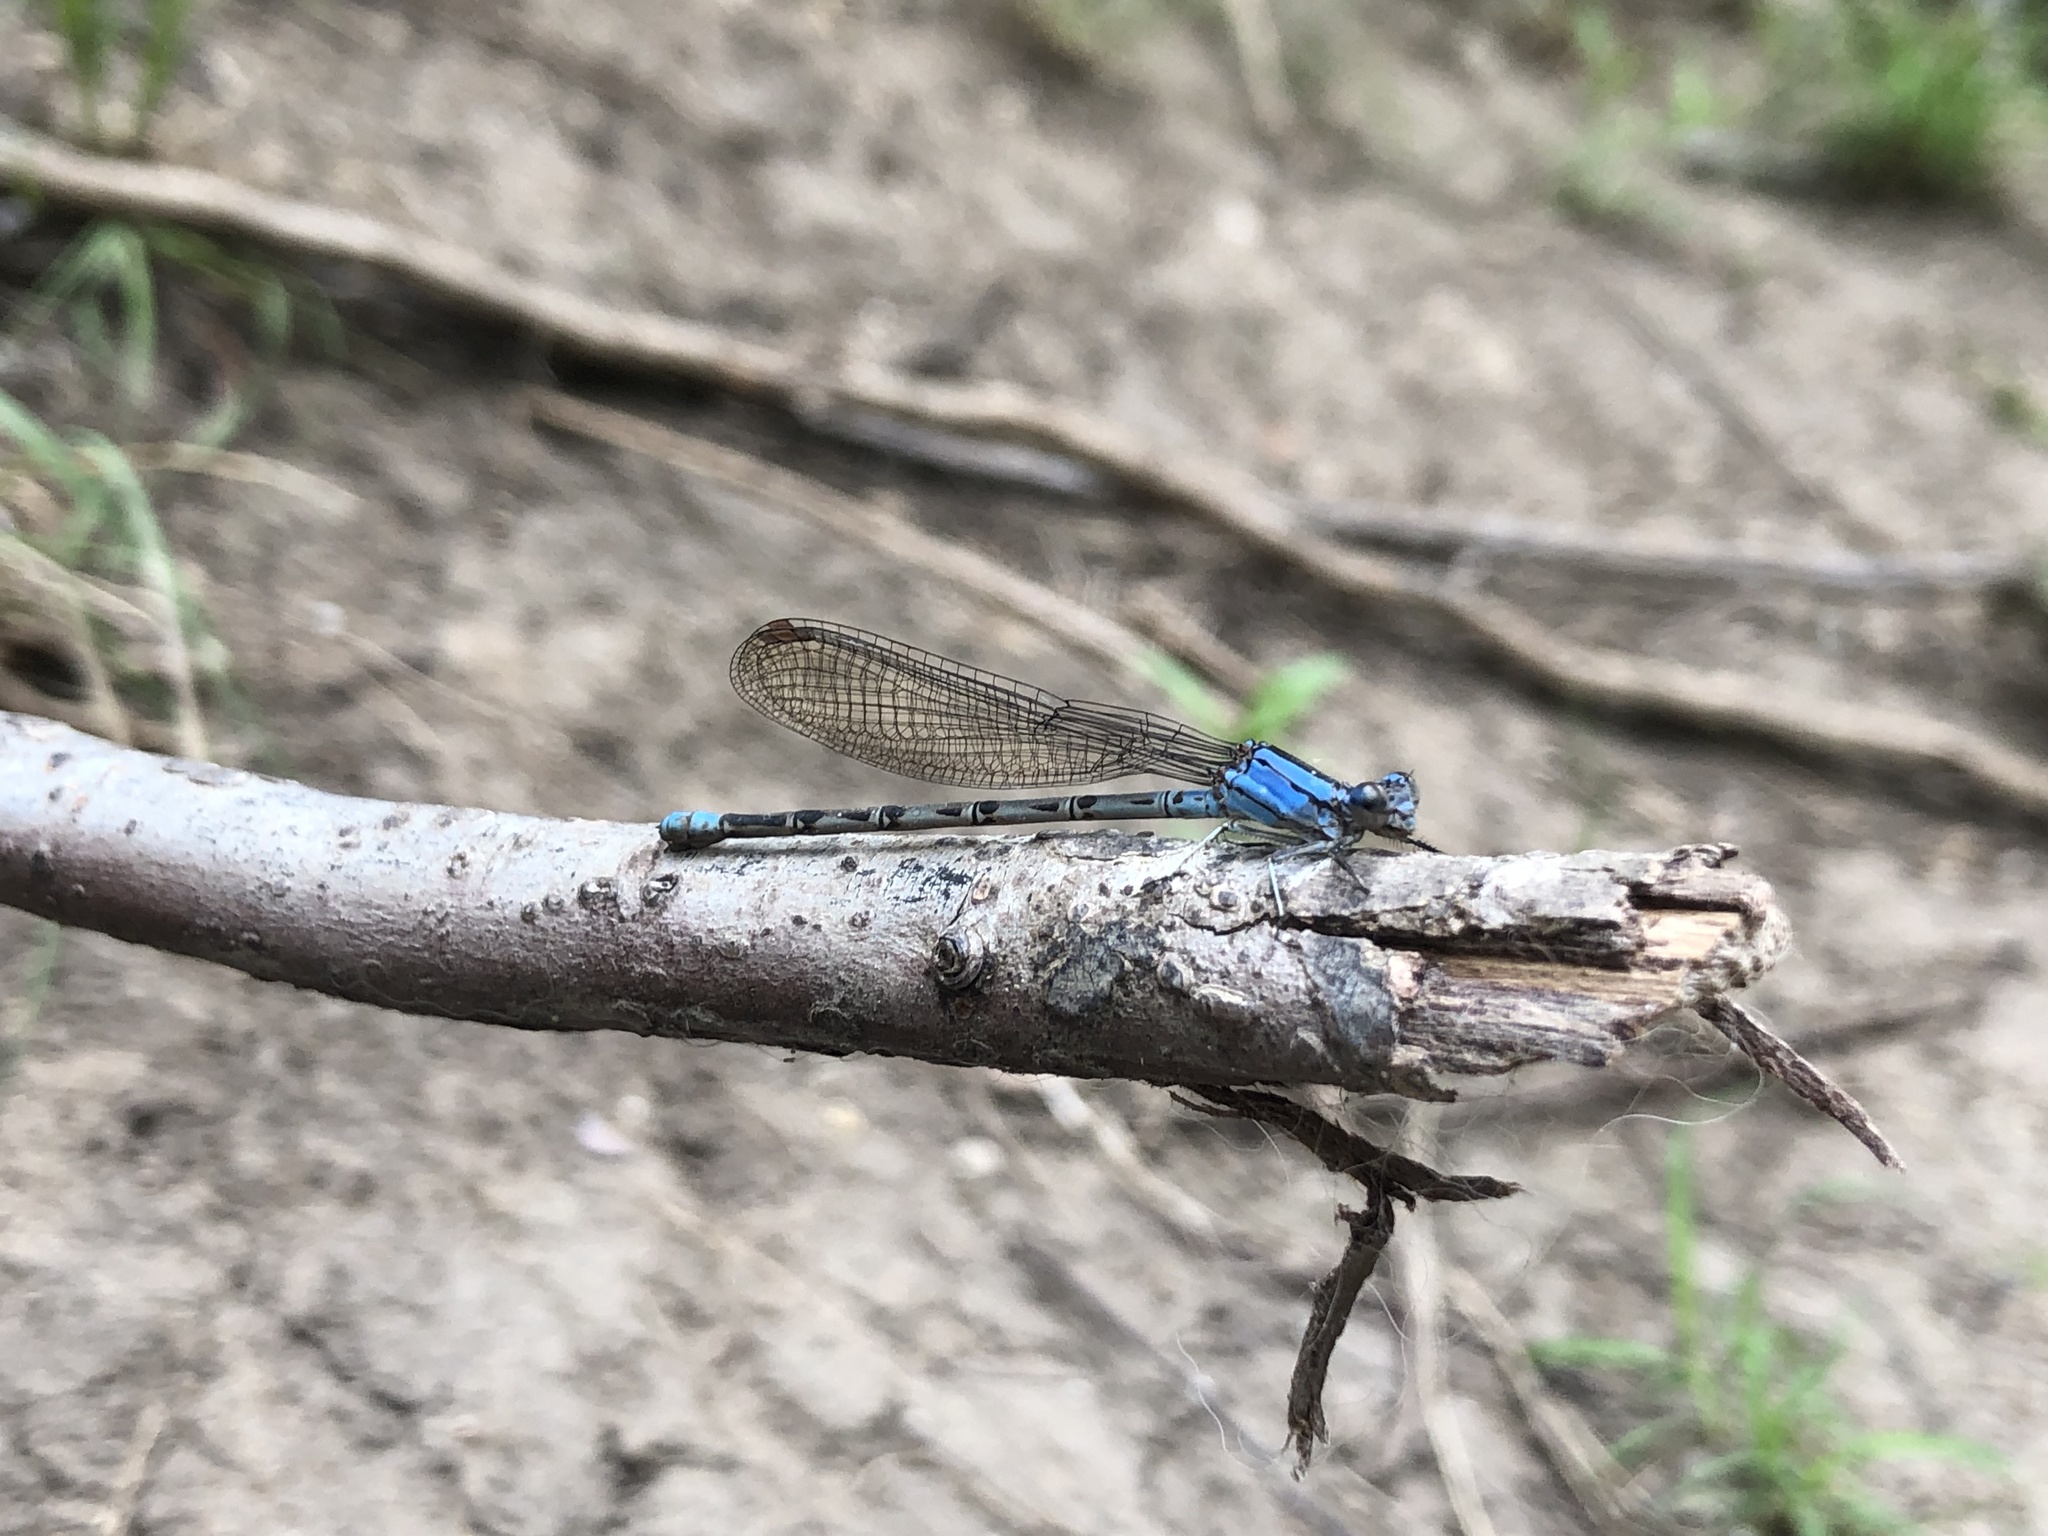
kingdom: Animalia
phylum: Arthropoda
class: Insecta
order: Odonata
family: Coenagrionidae
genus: Argia
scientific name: Argia funebris
